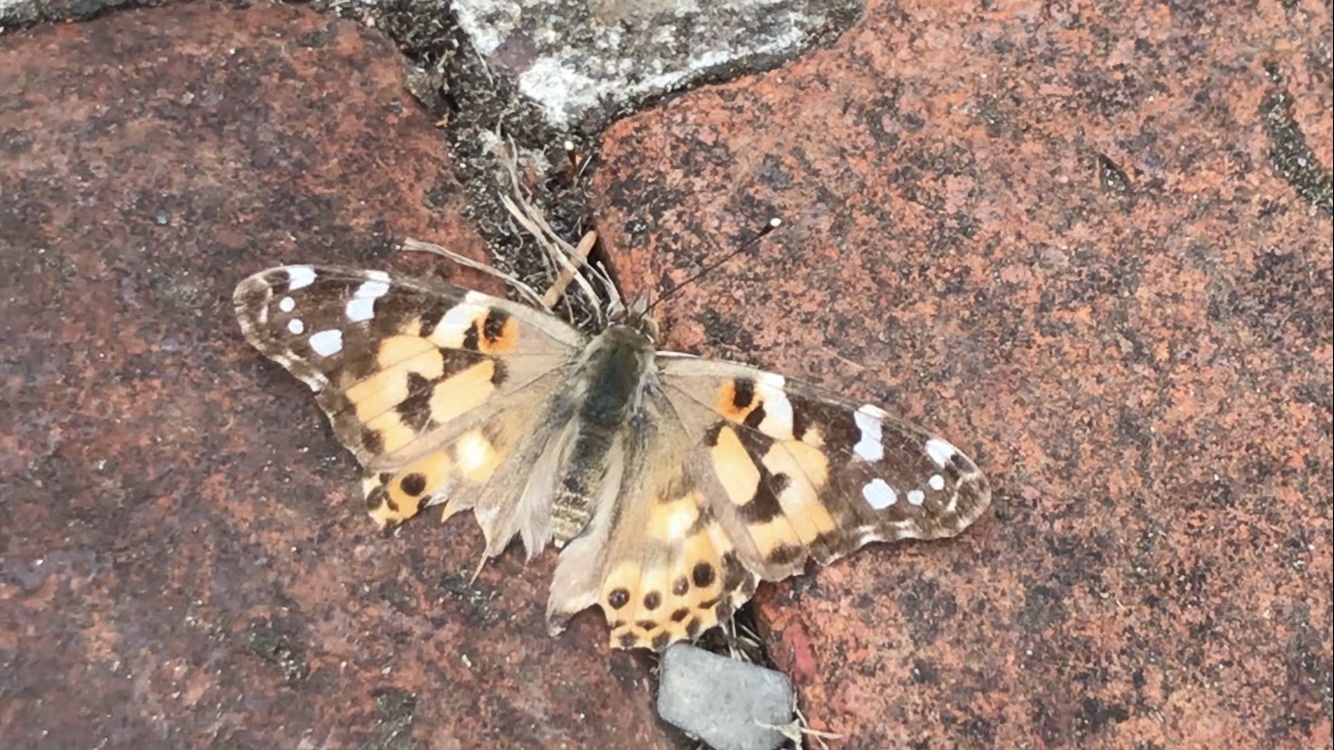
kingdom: Animalia
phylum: Arthropoda
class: Insecta
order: Lepidoptera
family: Nymphalidae
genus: Vanessa
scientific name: Vanessa cardui
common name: Painted lady
